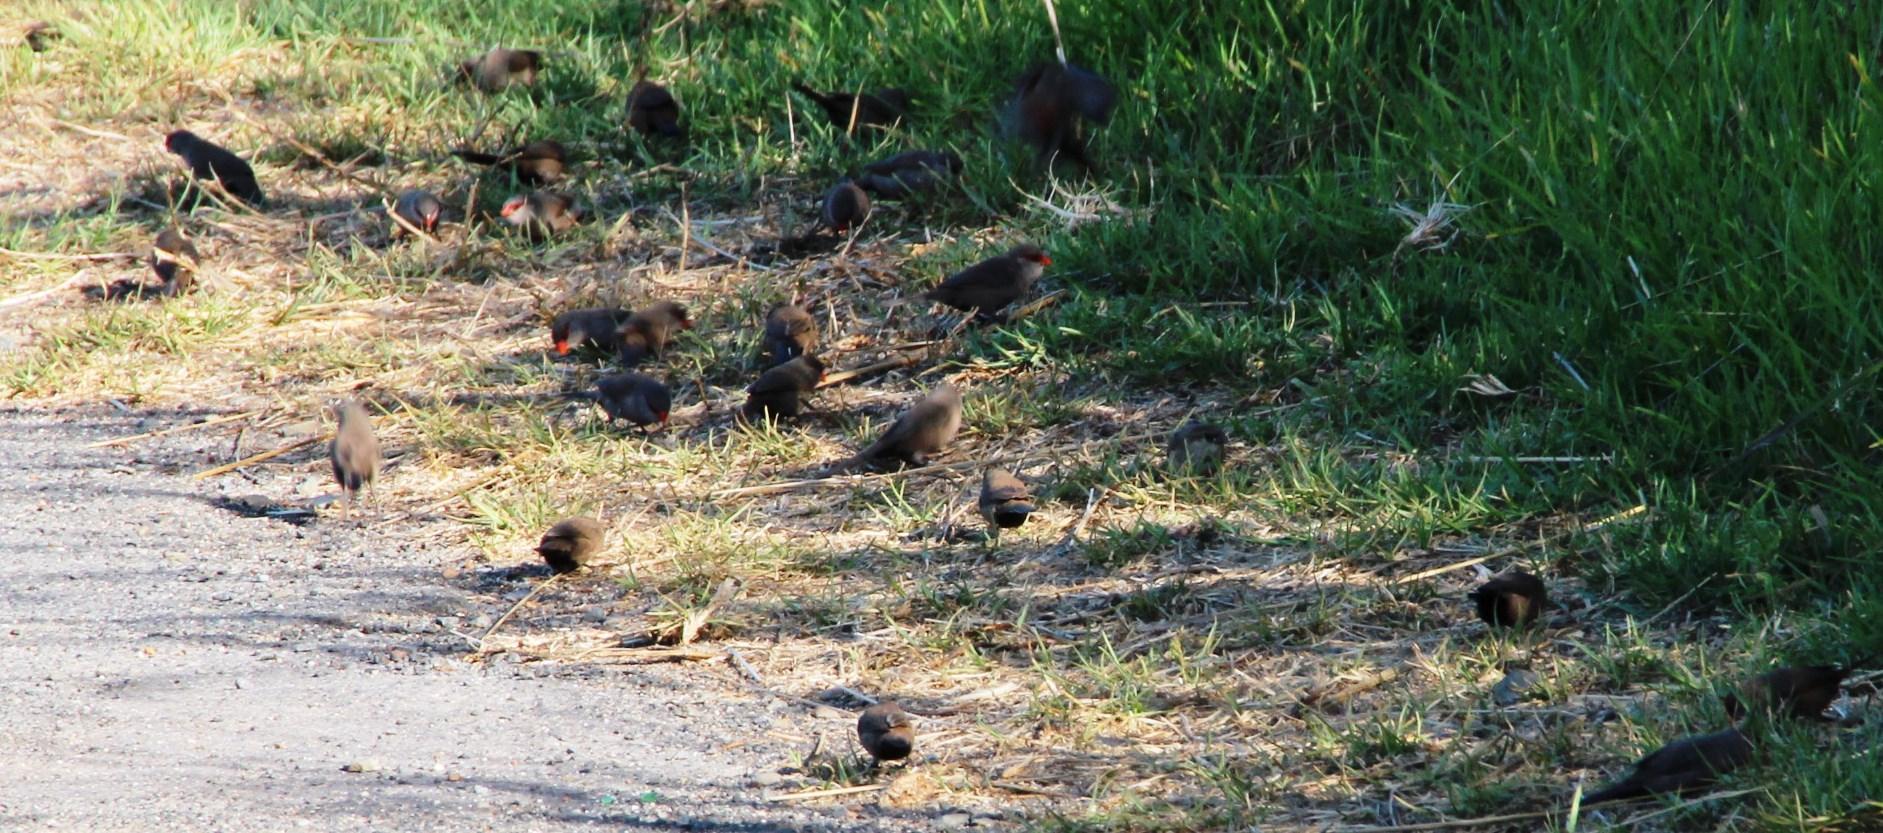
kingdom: Animalia
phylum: Chordata
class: Aves
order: Passeriformes
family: Estrildidae
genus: Estrilda
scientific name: Estrilda astrild
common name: Common waxbill
